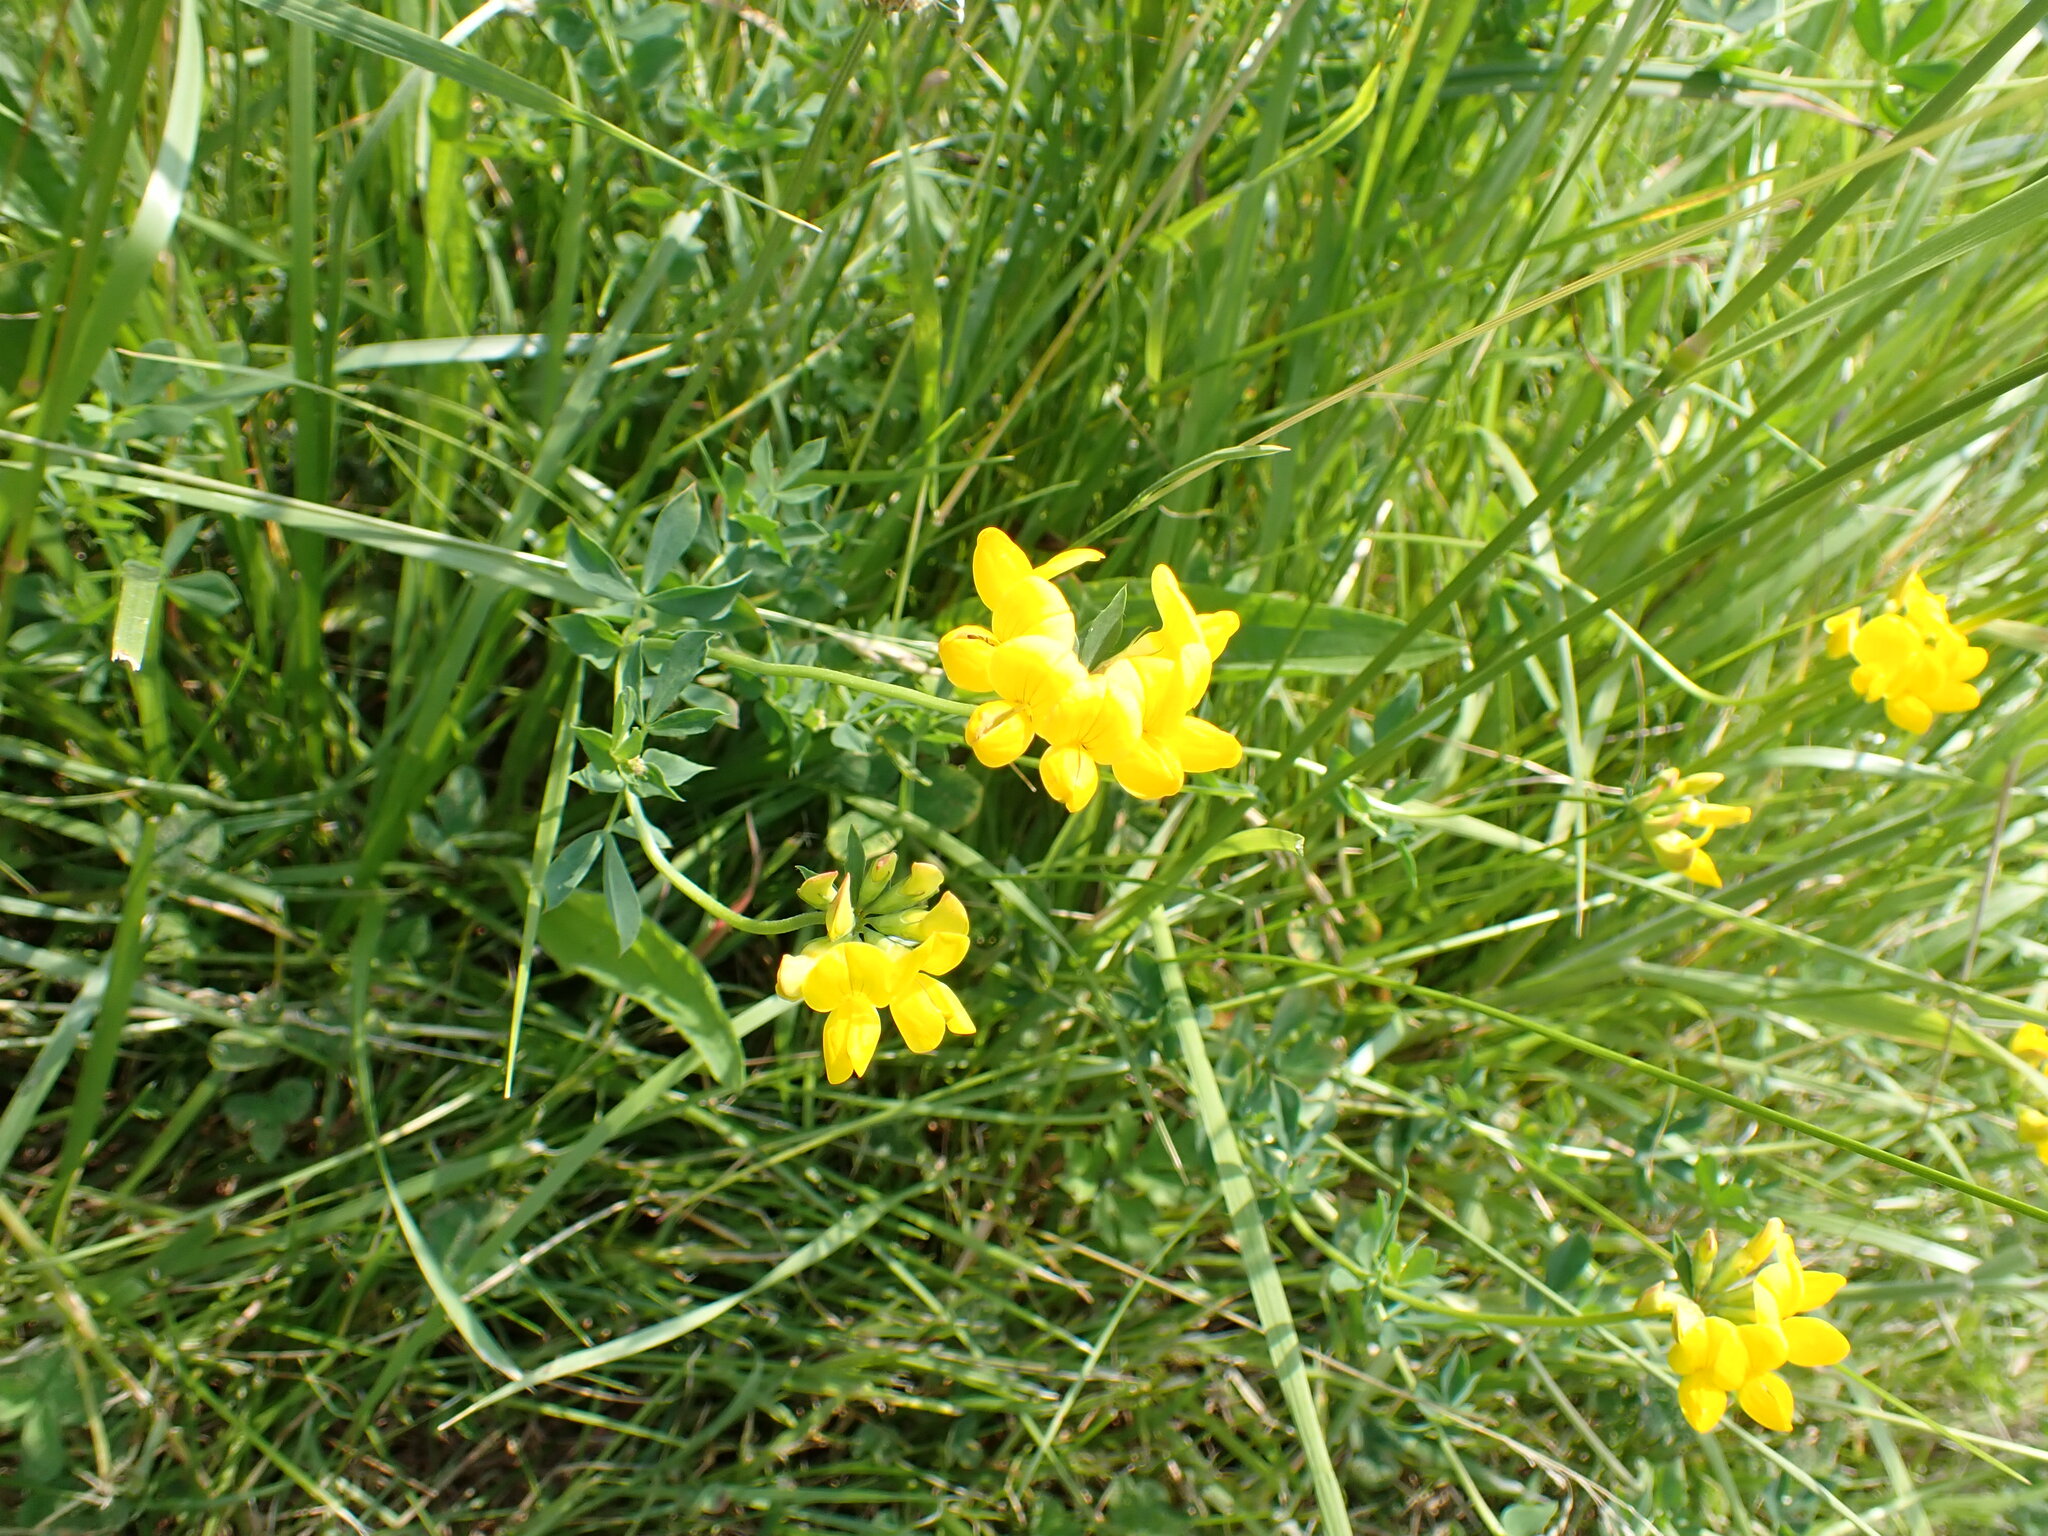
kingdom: Plantae
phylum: Tracheophyta
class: Magnoliopsida
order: Fabales
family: Fabaceae
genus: Lotus
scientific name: Lotus corniculatus
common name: Common bird's-foot-trefoil
